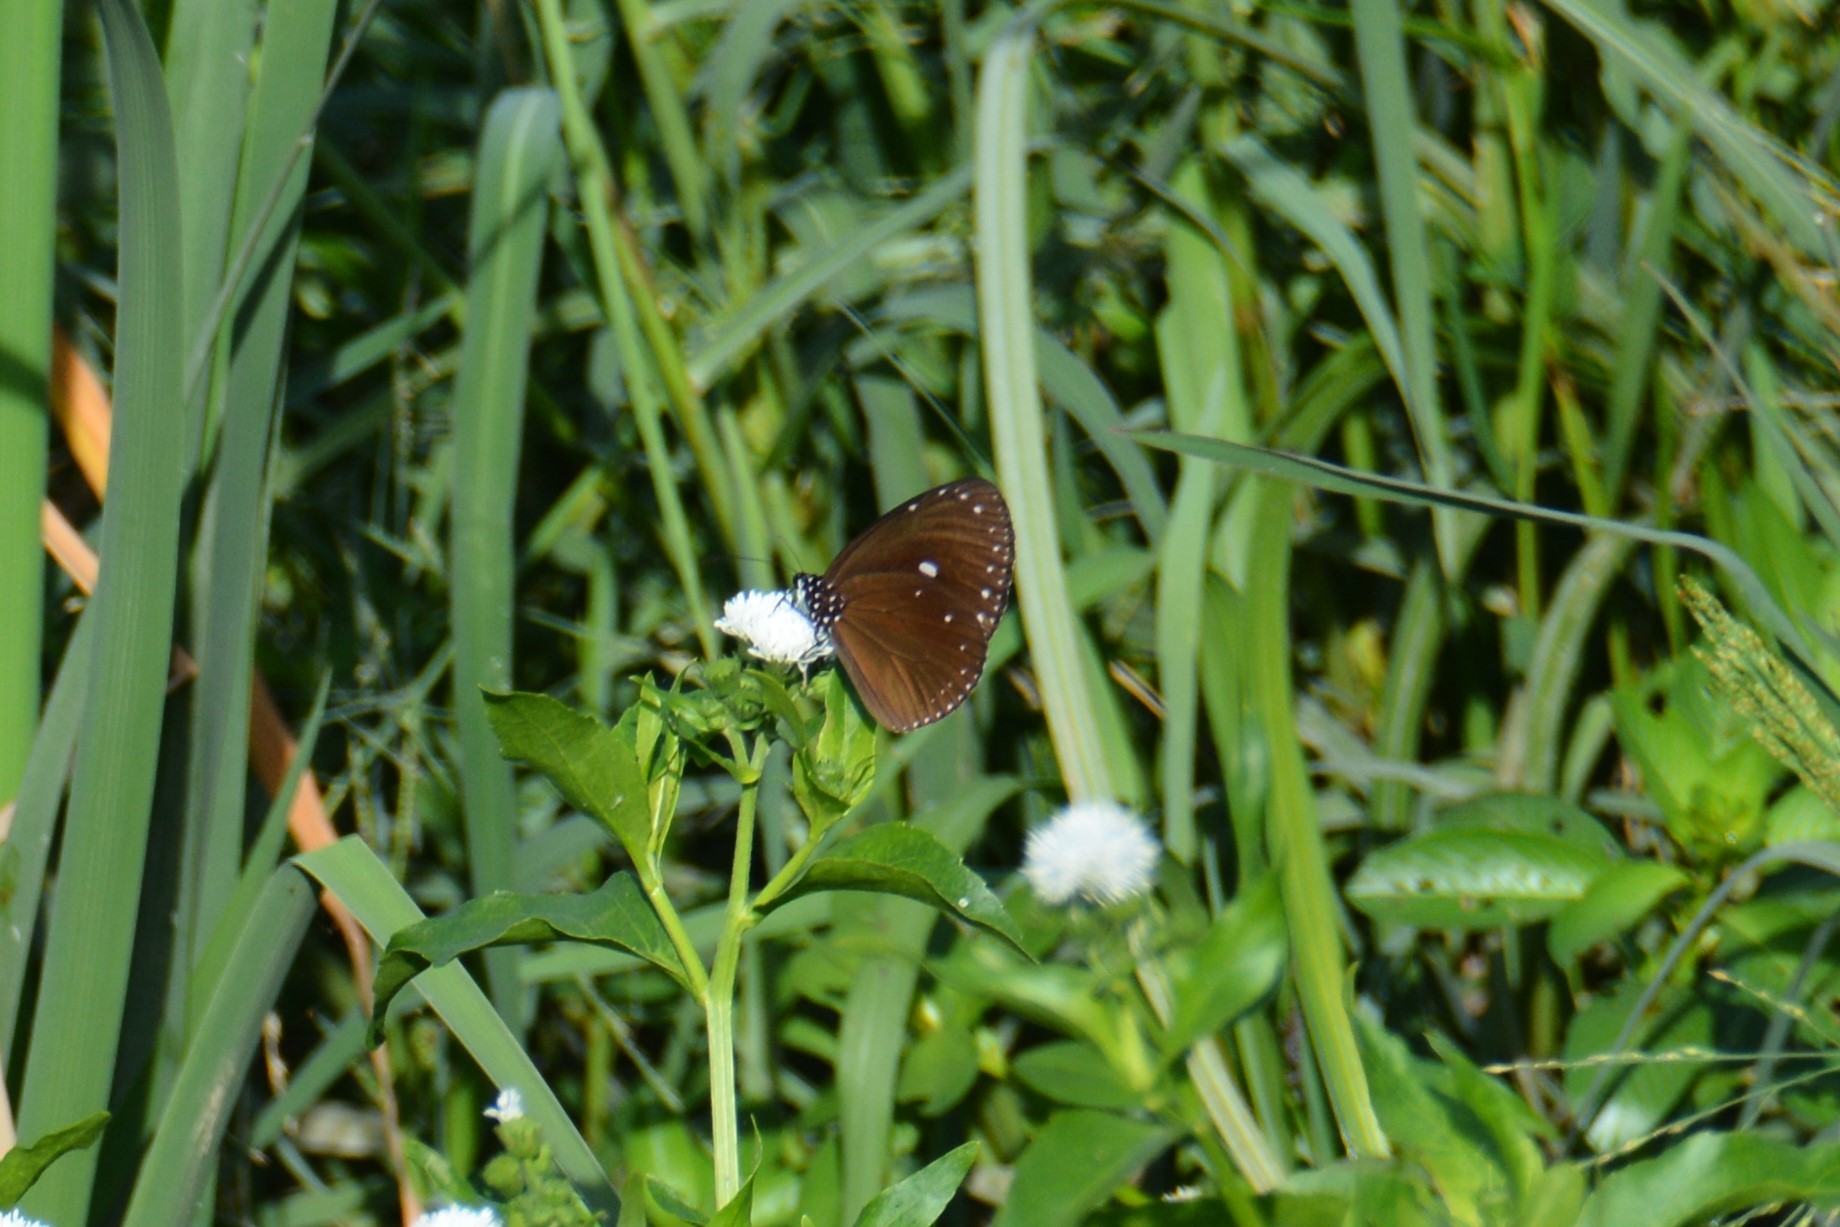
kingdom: Animalia
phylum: Arthropoda
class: Insecta
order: Lepidoptera
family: Nymphalidae
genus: Euploea
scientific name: Euploea tulliolus
